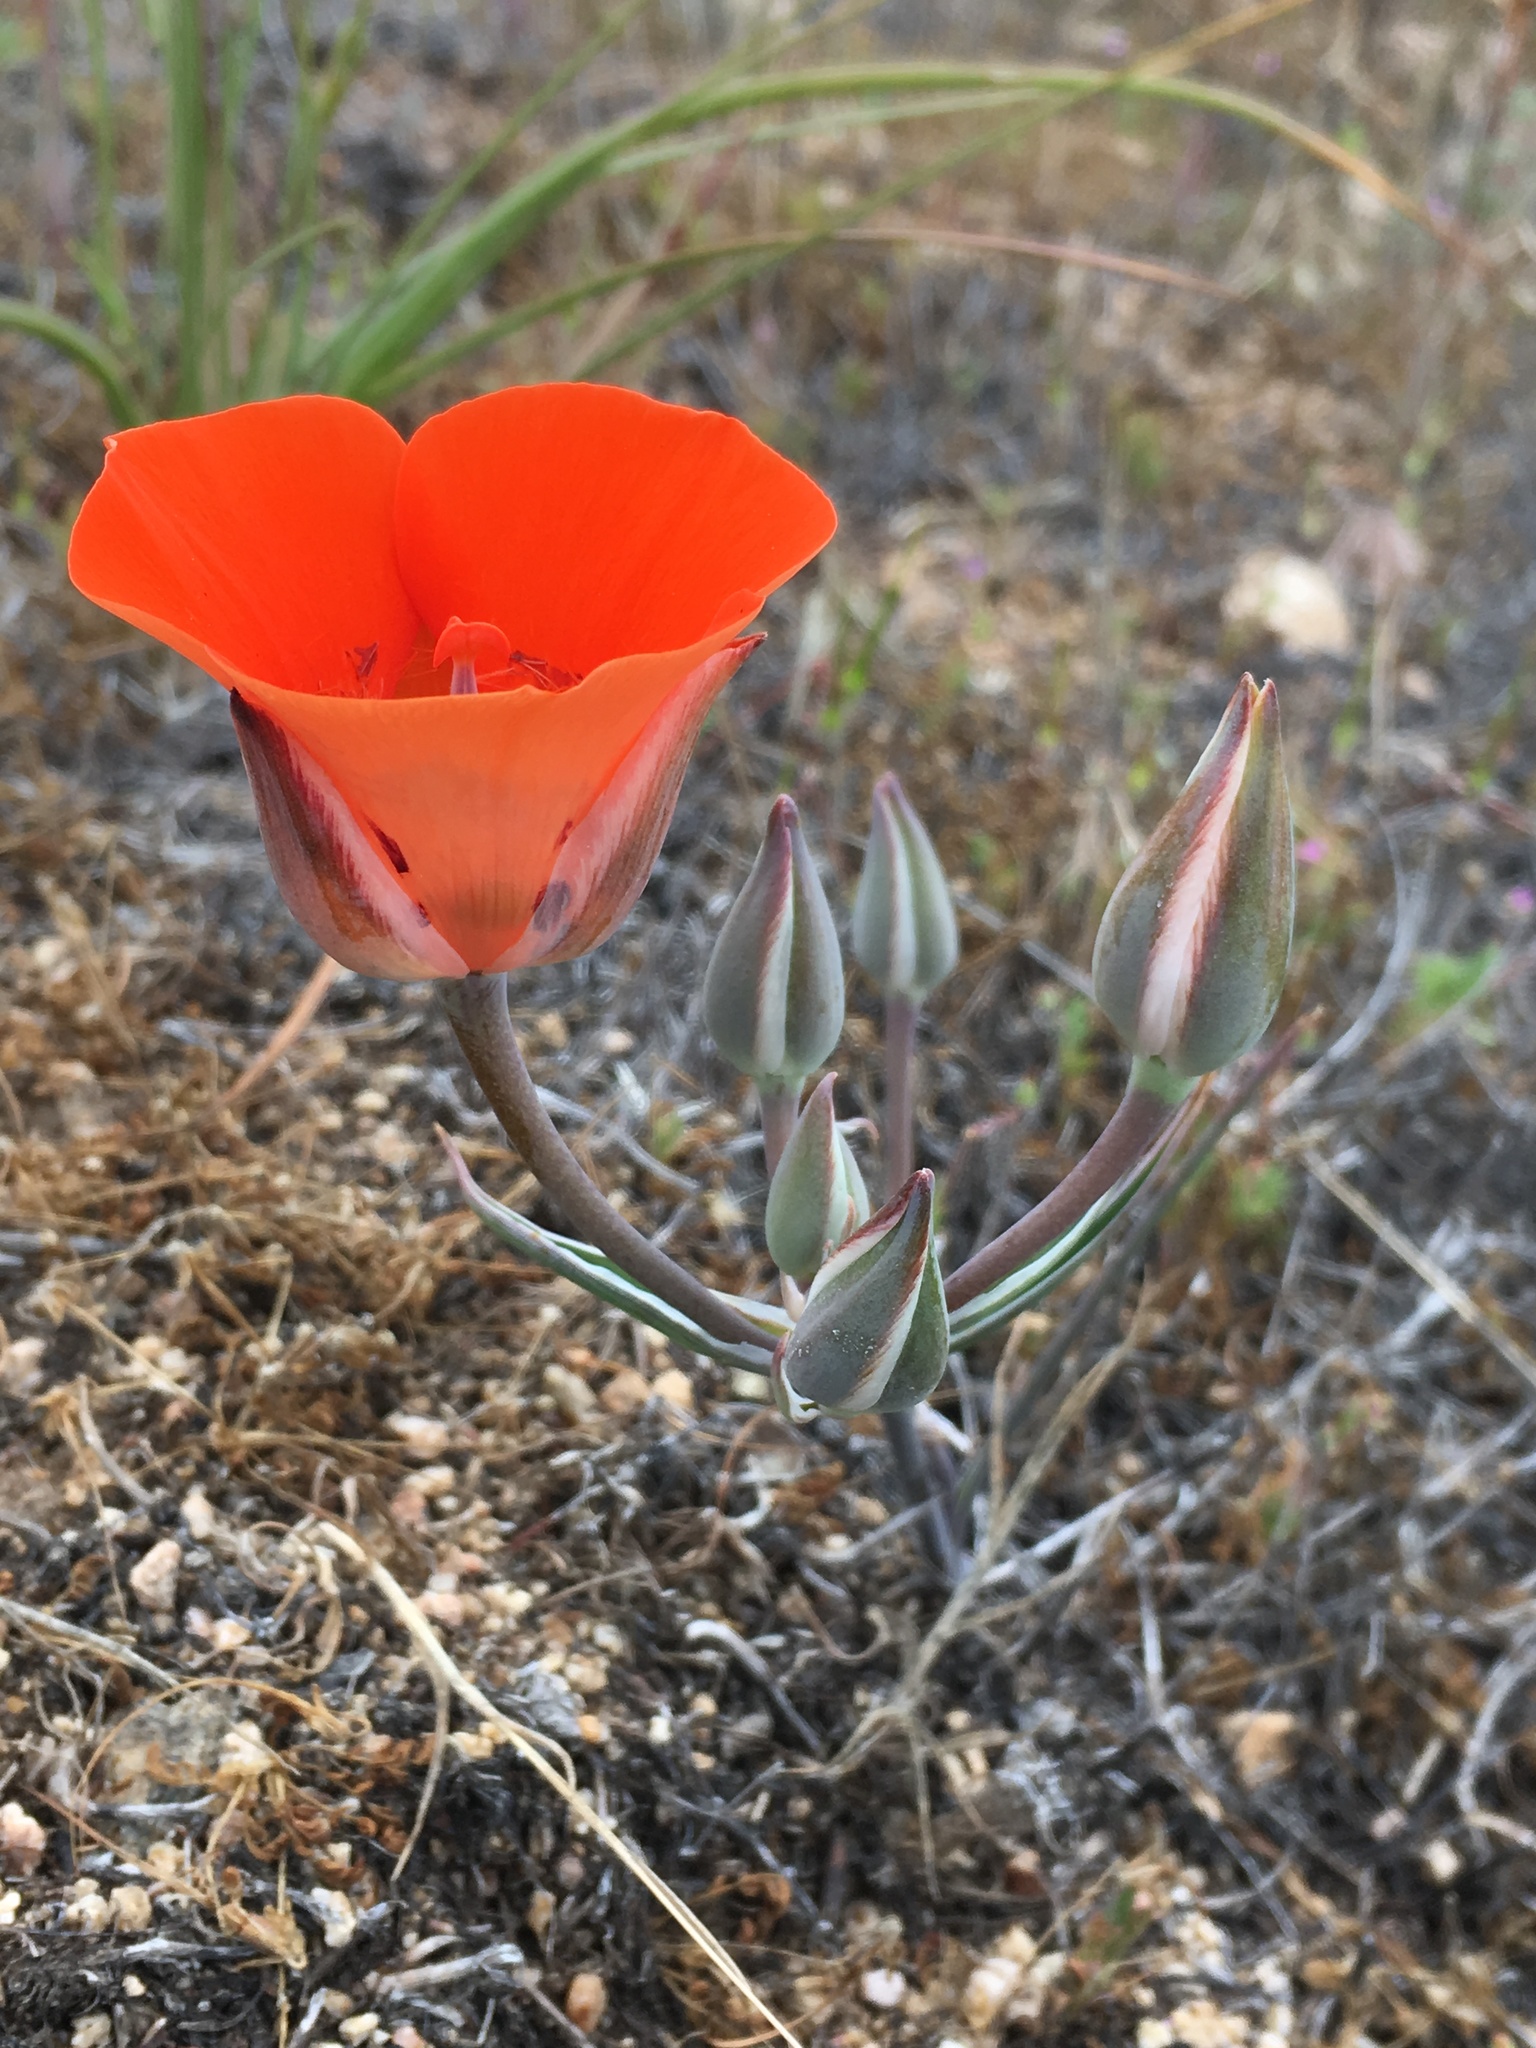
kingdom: Plantae
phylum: Tracheophyta
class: Liliopsida
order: Liliales
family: Liliaceae
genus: Calochortus
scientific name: Calochortus kennedyi
